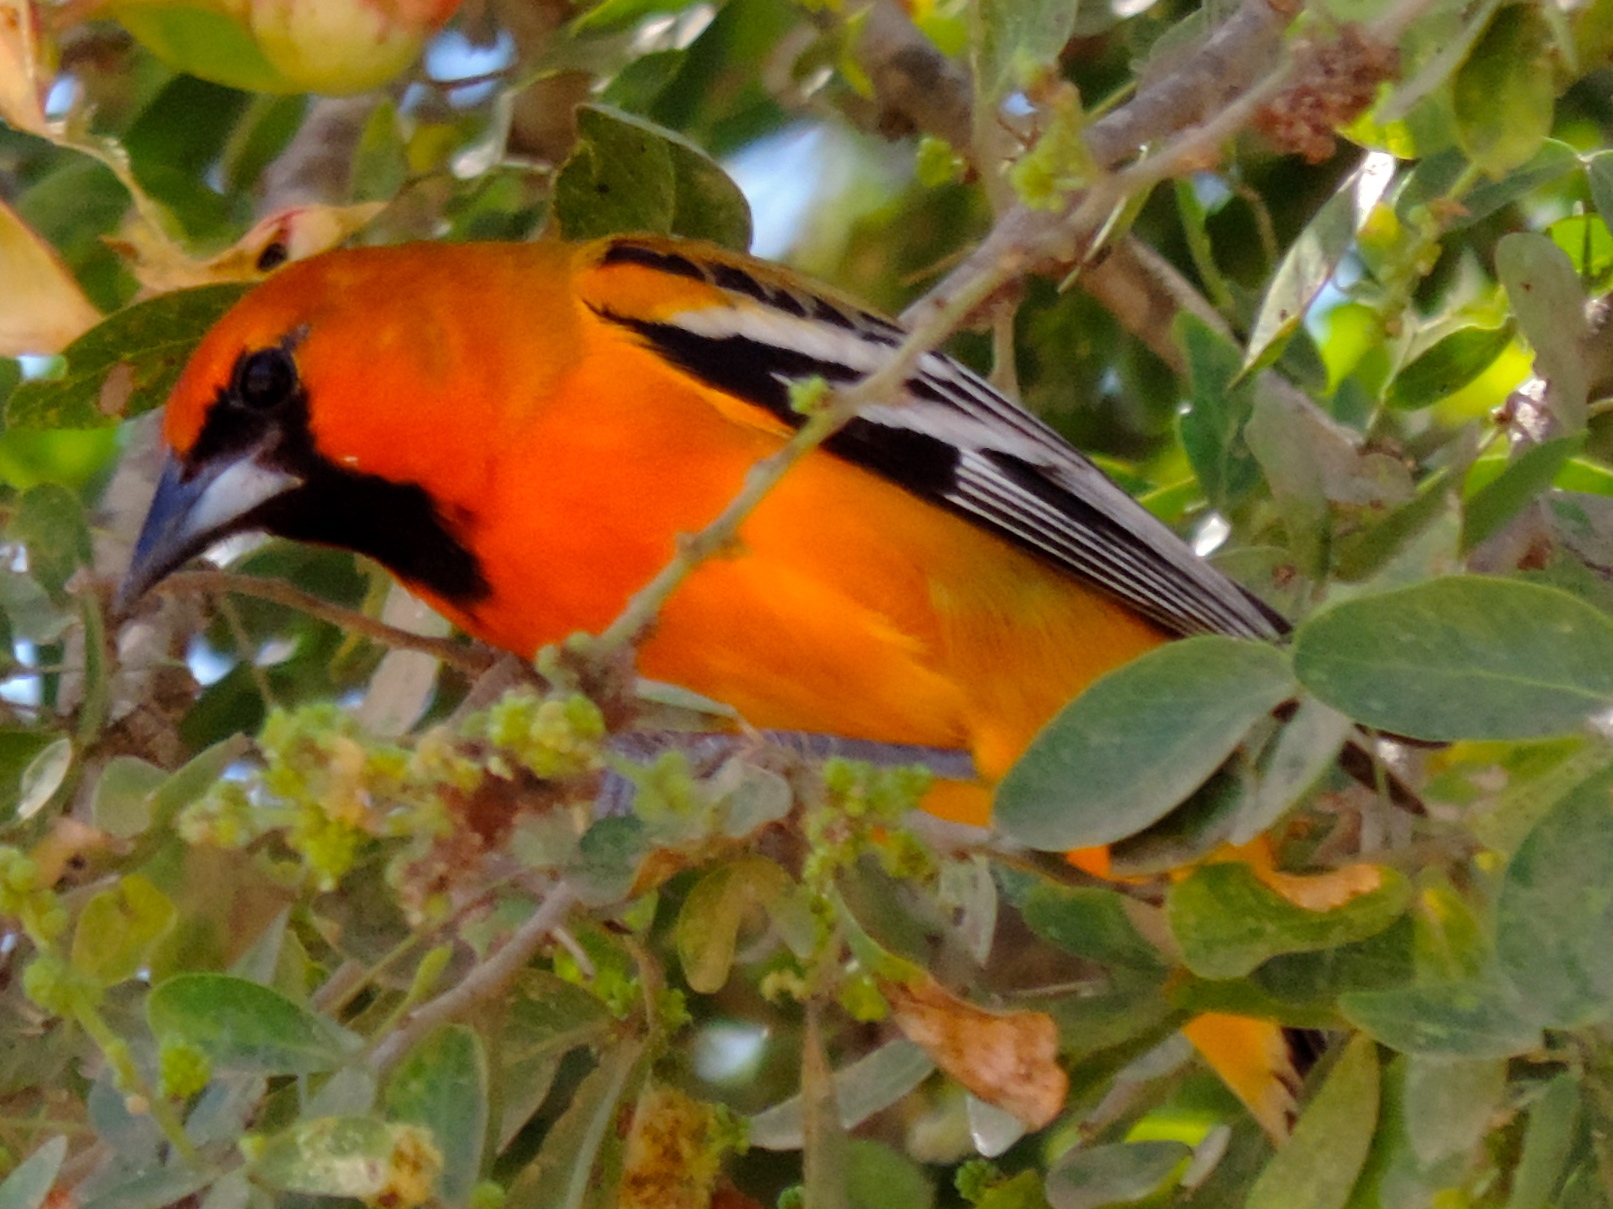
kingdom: Animalia
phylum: Chordata
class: Aves
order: Passeriformes
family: Icteridae
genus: Icterus
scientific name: Icterus pustulatus
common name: Streak-backed oriole
